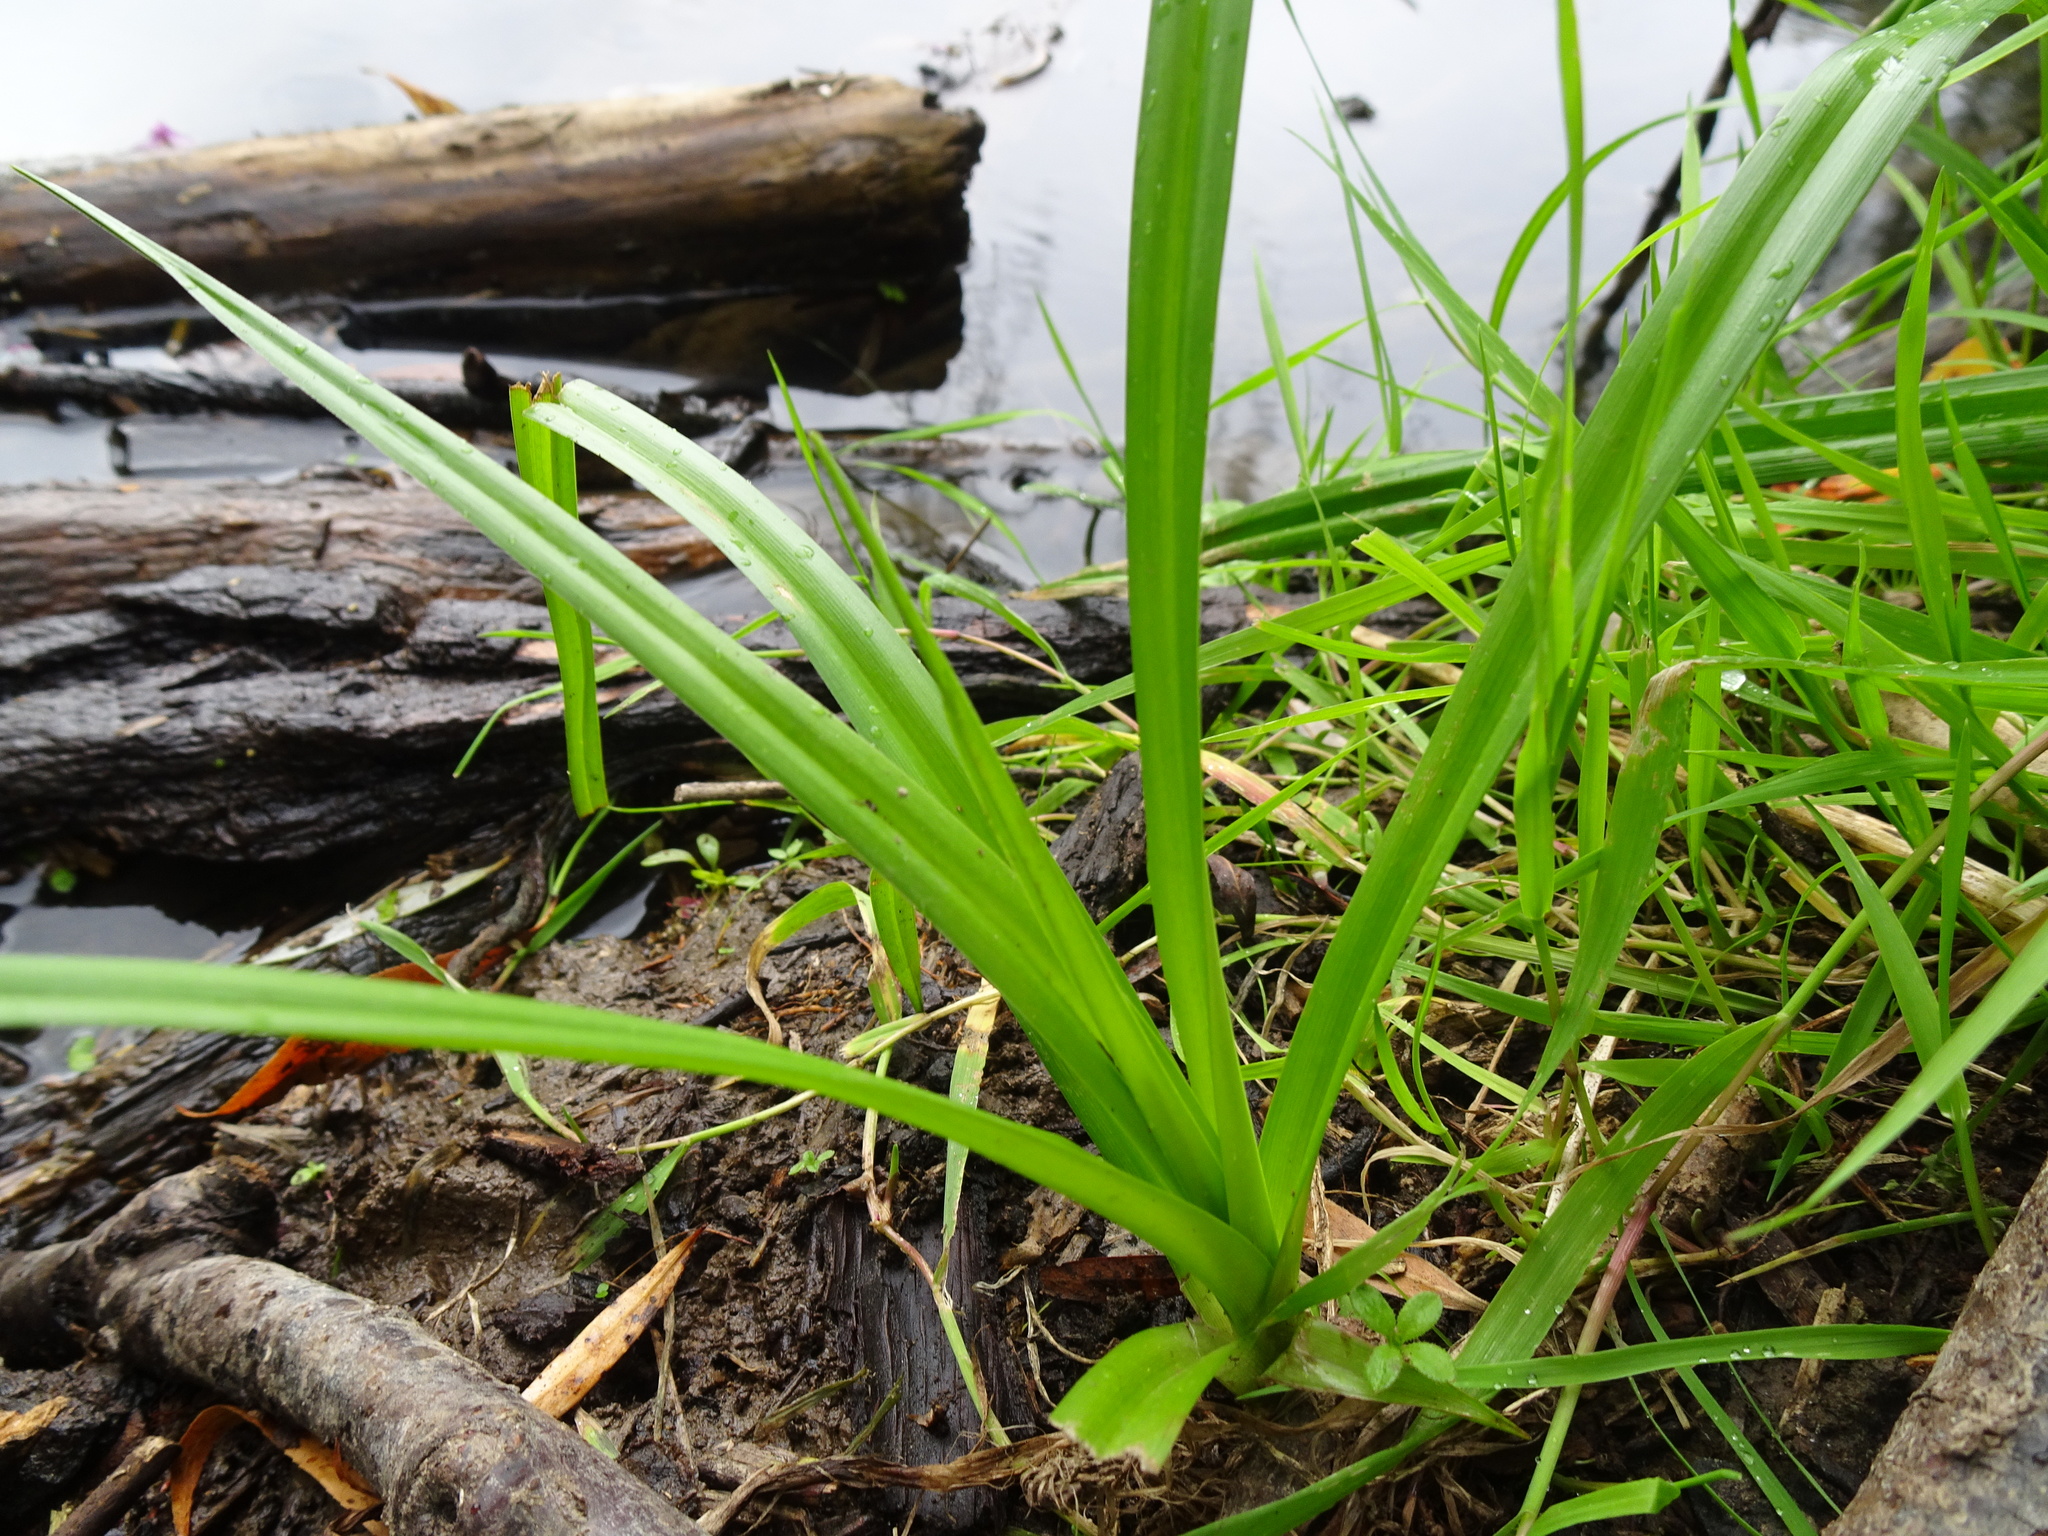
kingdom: Plantae
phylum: Tracheophyta
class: Liliopsida
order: Poales
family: Cyperaceae
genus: Scirpus
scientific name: Scirpus sylvaticus
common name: Wood club-rush
